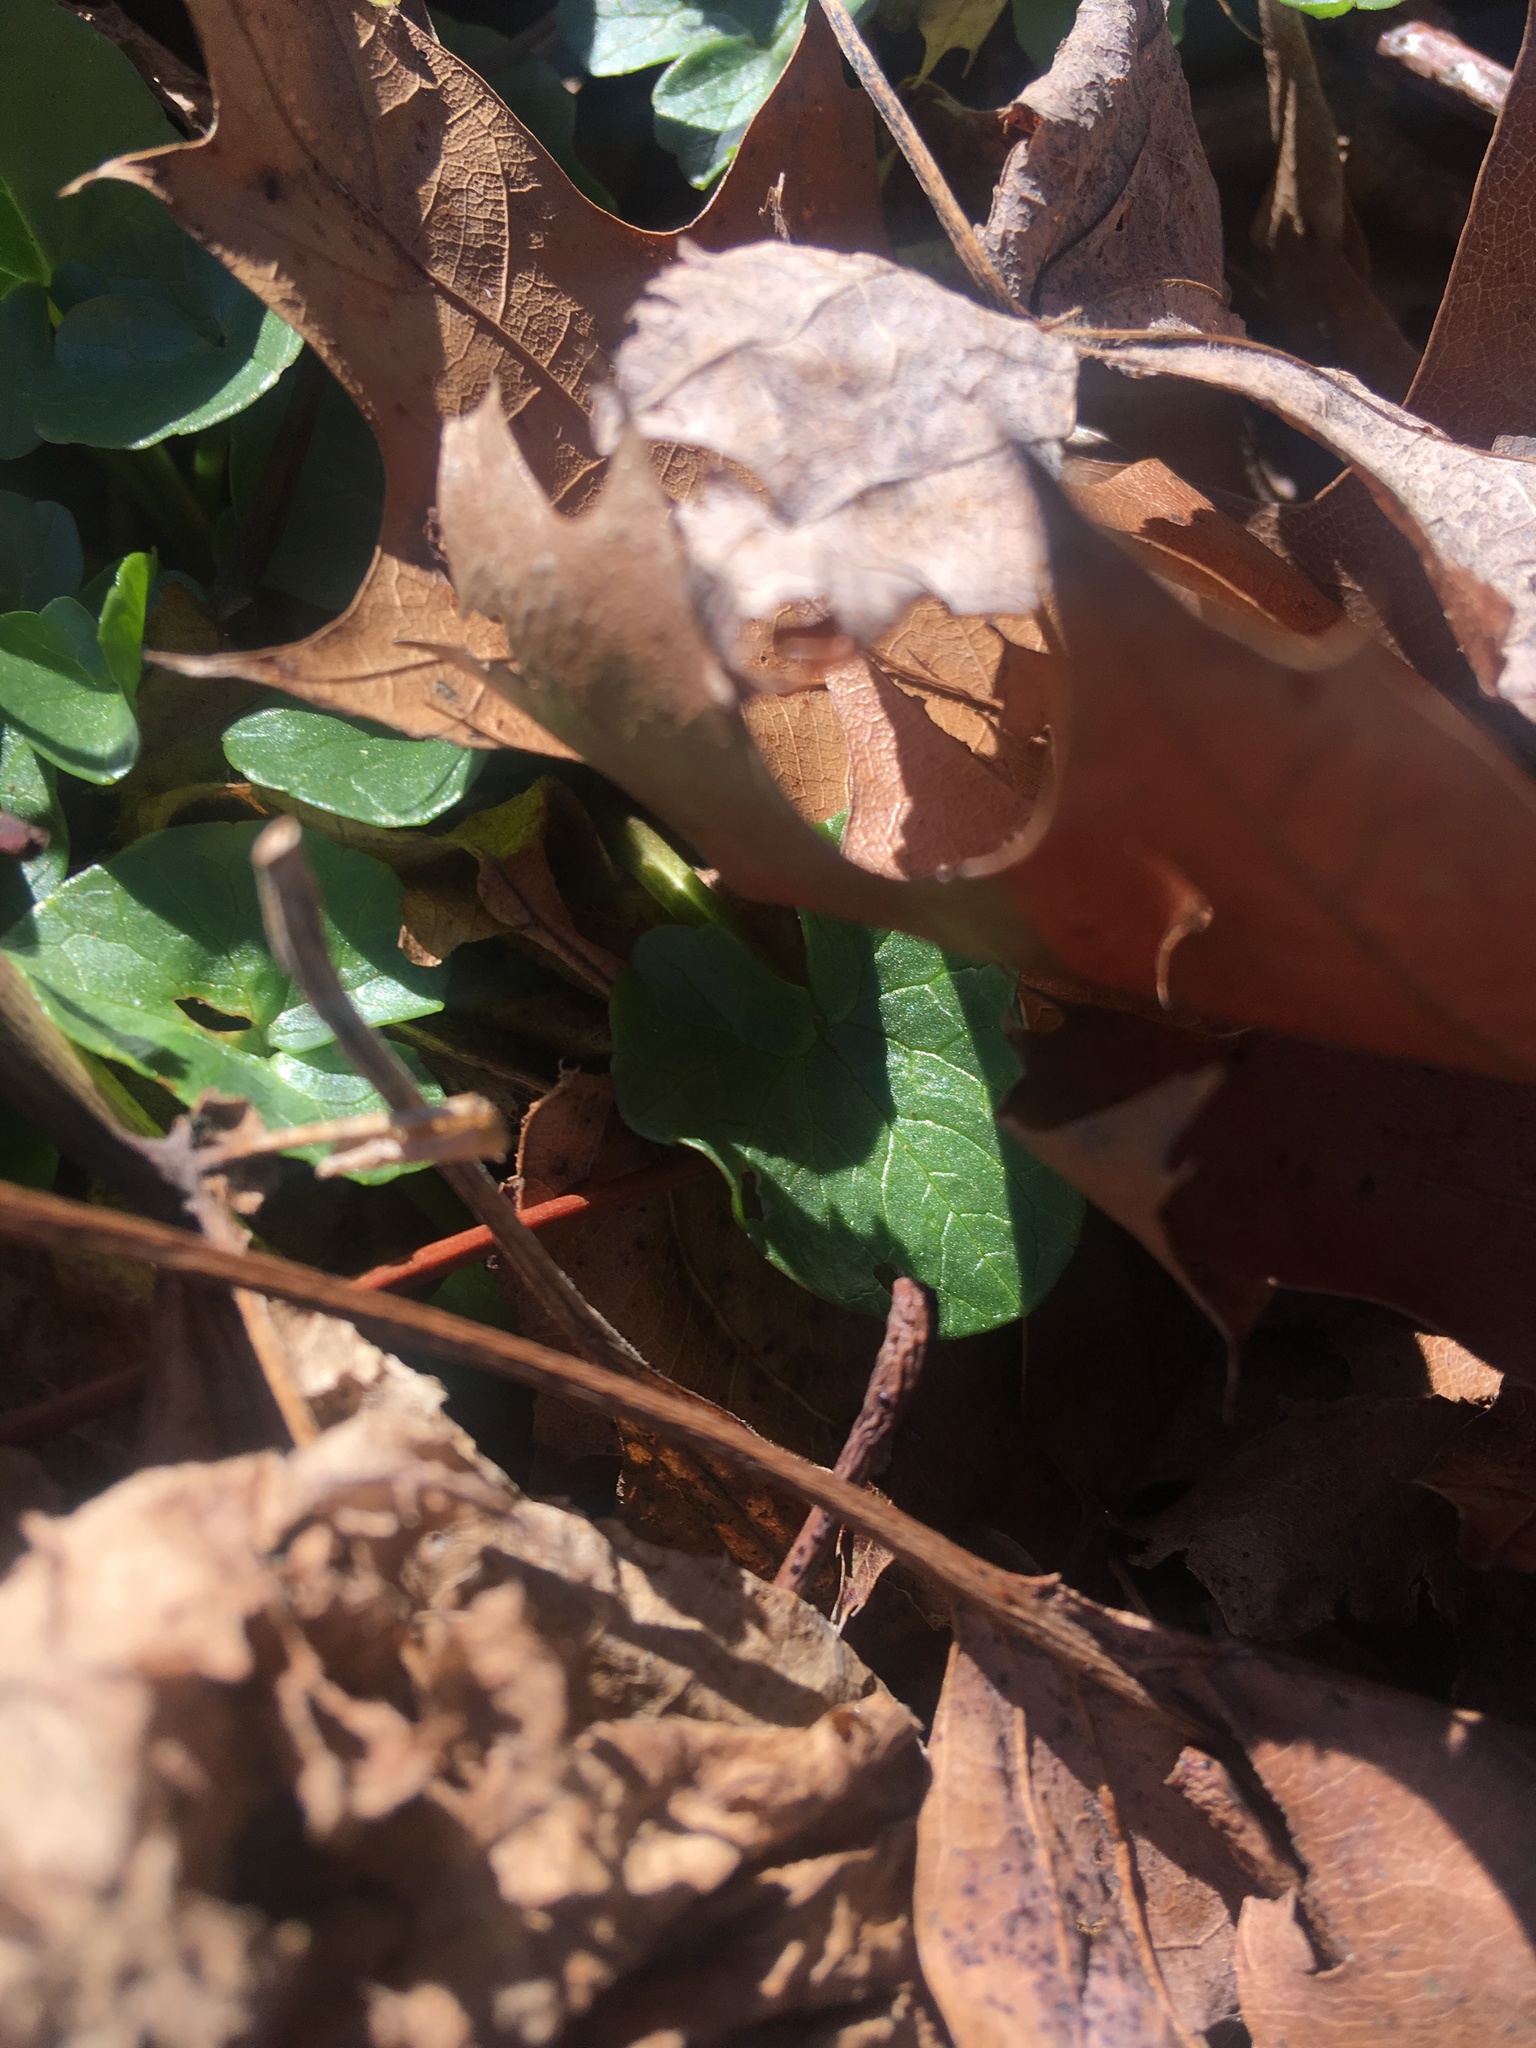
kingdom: Plantae
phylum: Tracheophyta
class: Magnoliopsida
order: Ranunculales
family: Ranunculaceae
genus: Ficaria
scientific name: Ficaria verna
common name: Lesser celandine
